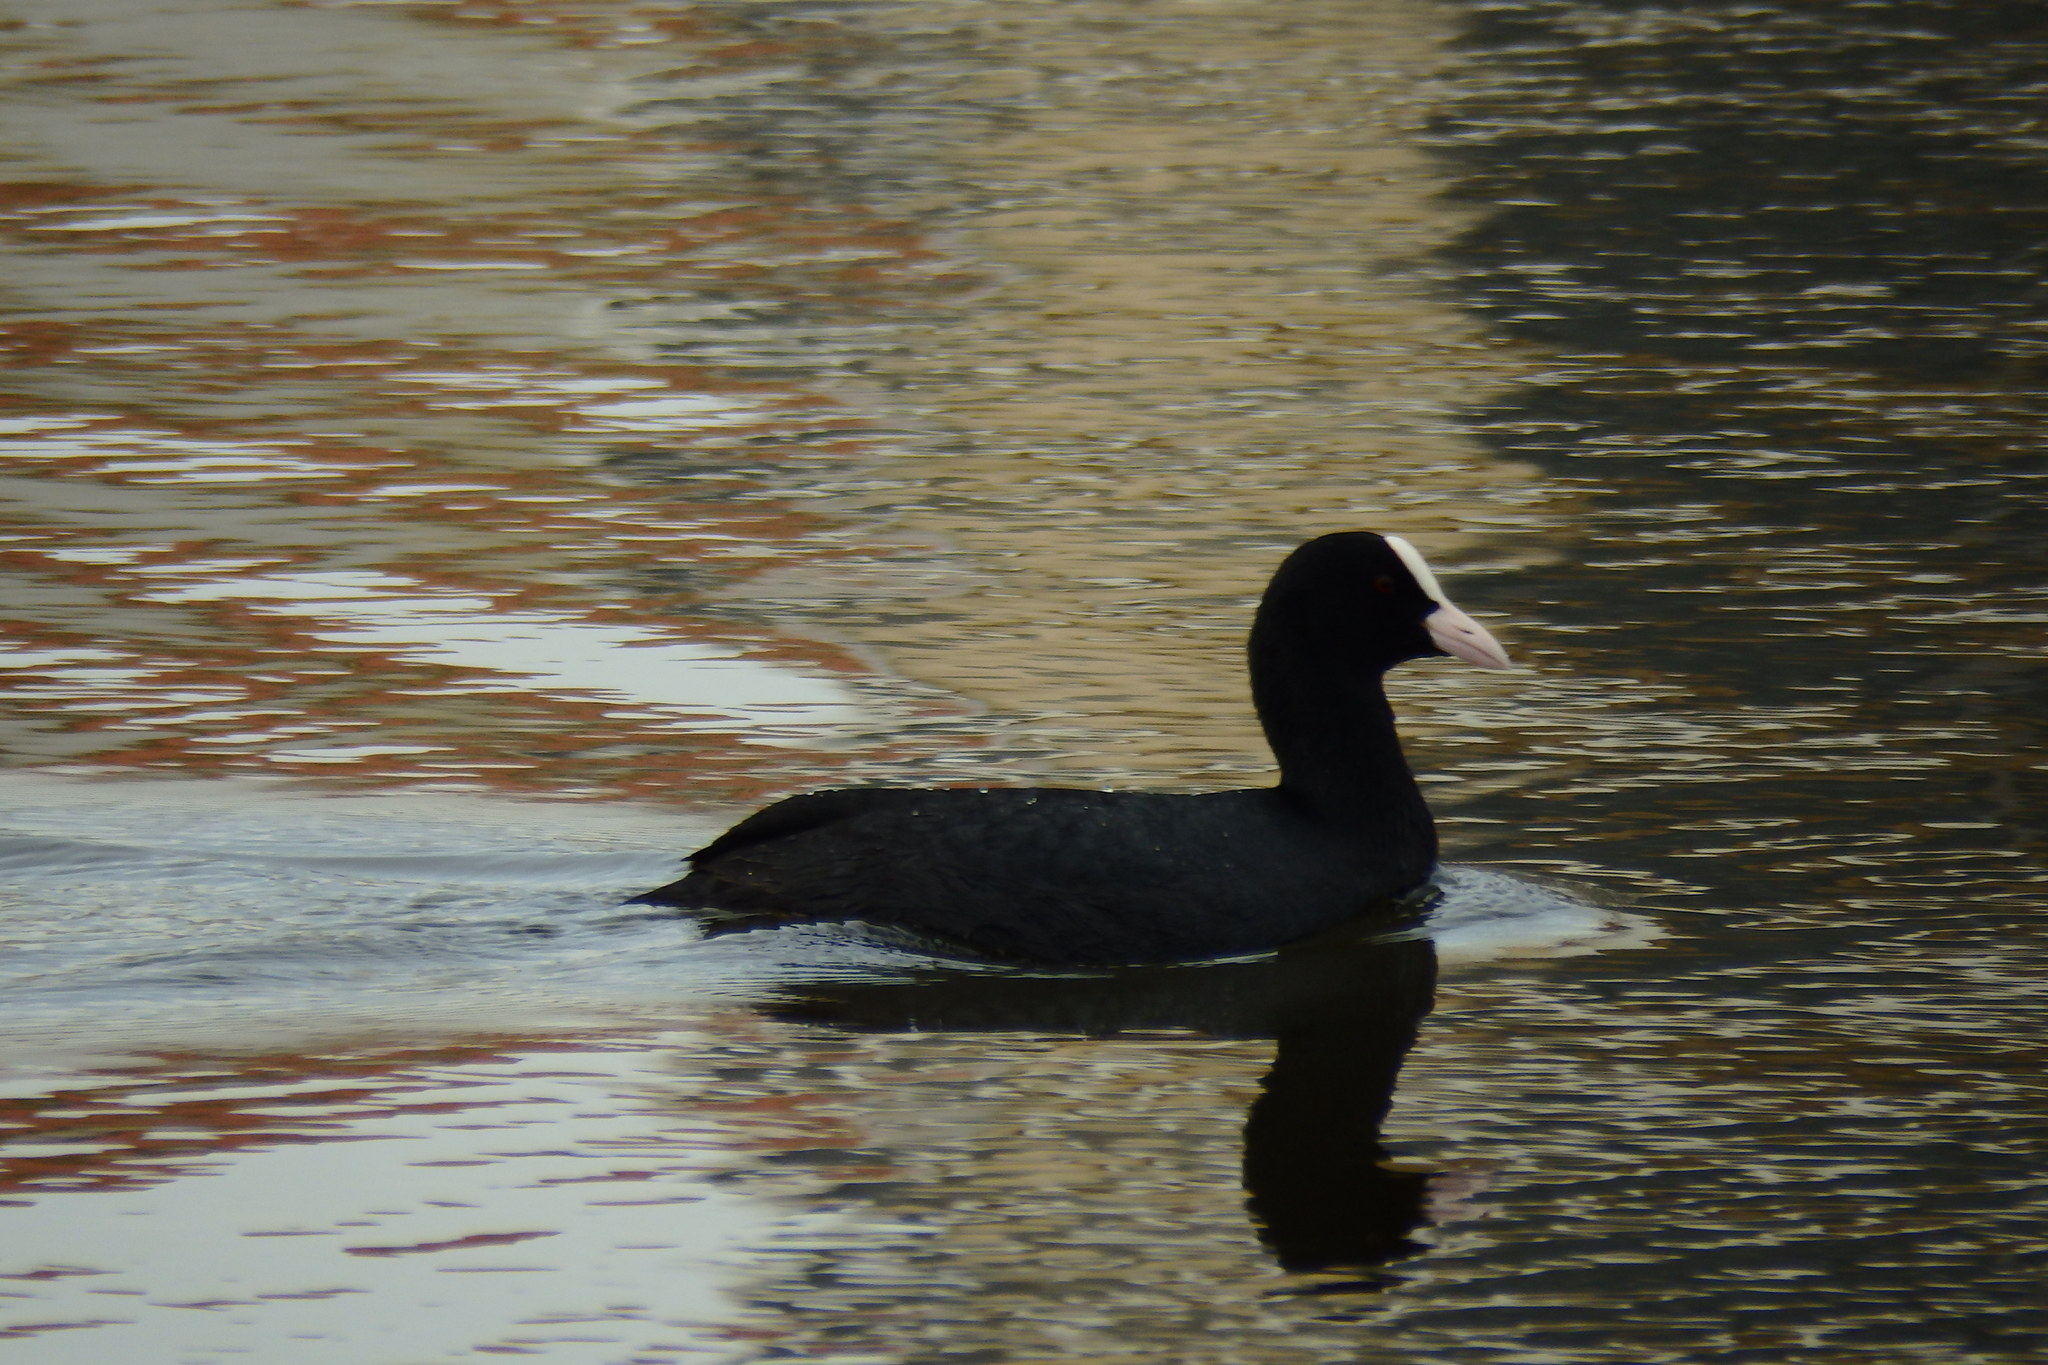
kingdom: Animalia
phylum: Chordata
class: Aves
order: Gruiformes
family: Rallidae
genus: Fulica
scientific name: Fulica atra
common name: Eurasian coot
